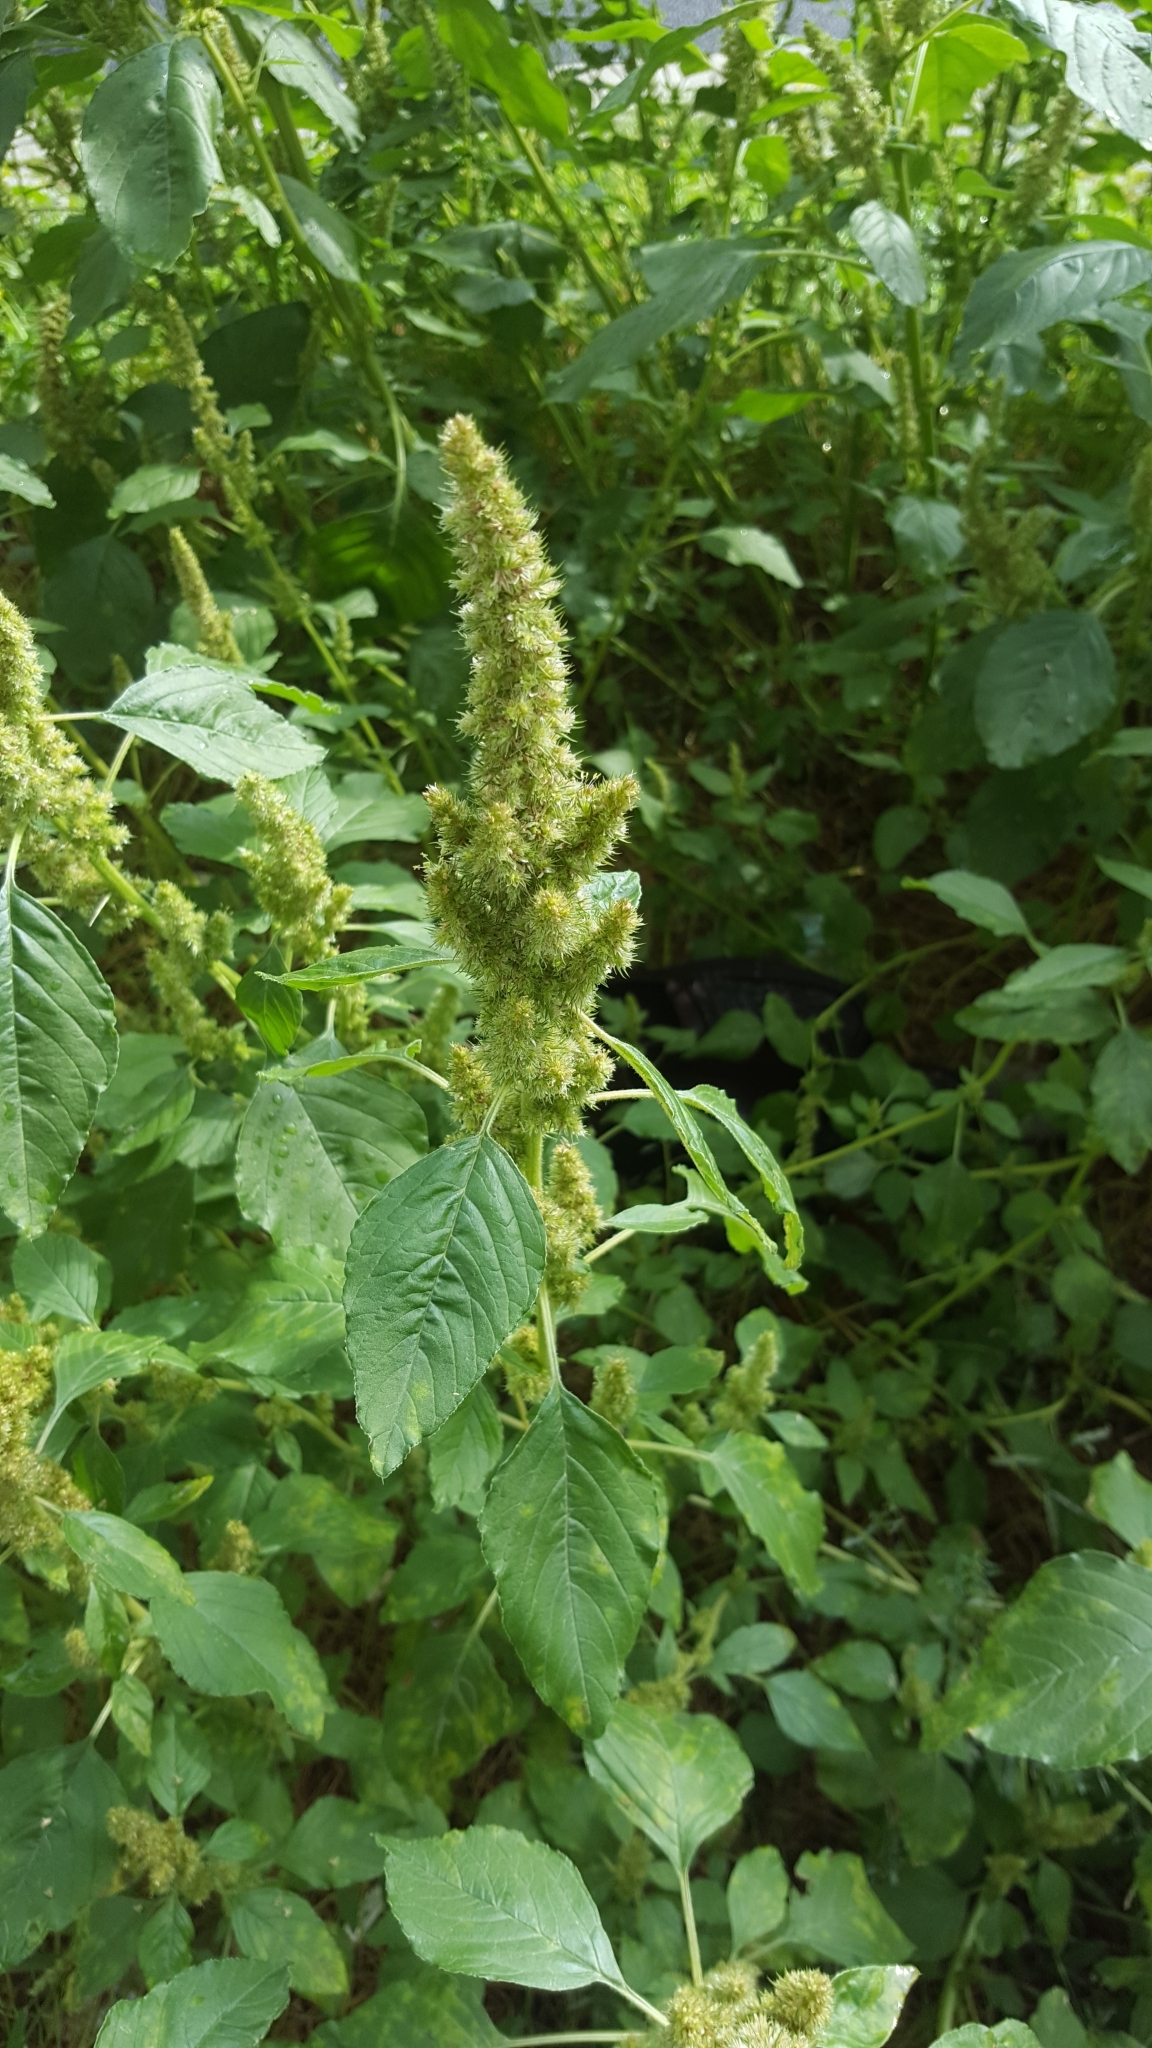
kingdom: Plantae
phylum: Tracheophyta
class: Magnoliopsida
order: Caryophyllales
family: Amaranthaceae
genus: Amaranthus
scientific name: Amaranthus retroflexus
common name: Redroot amaranth
